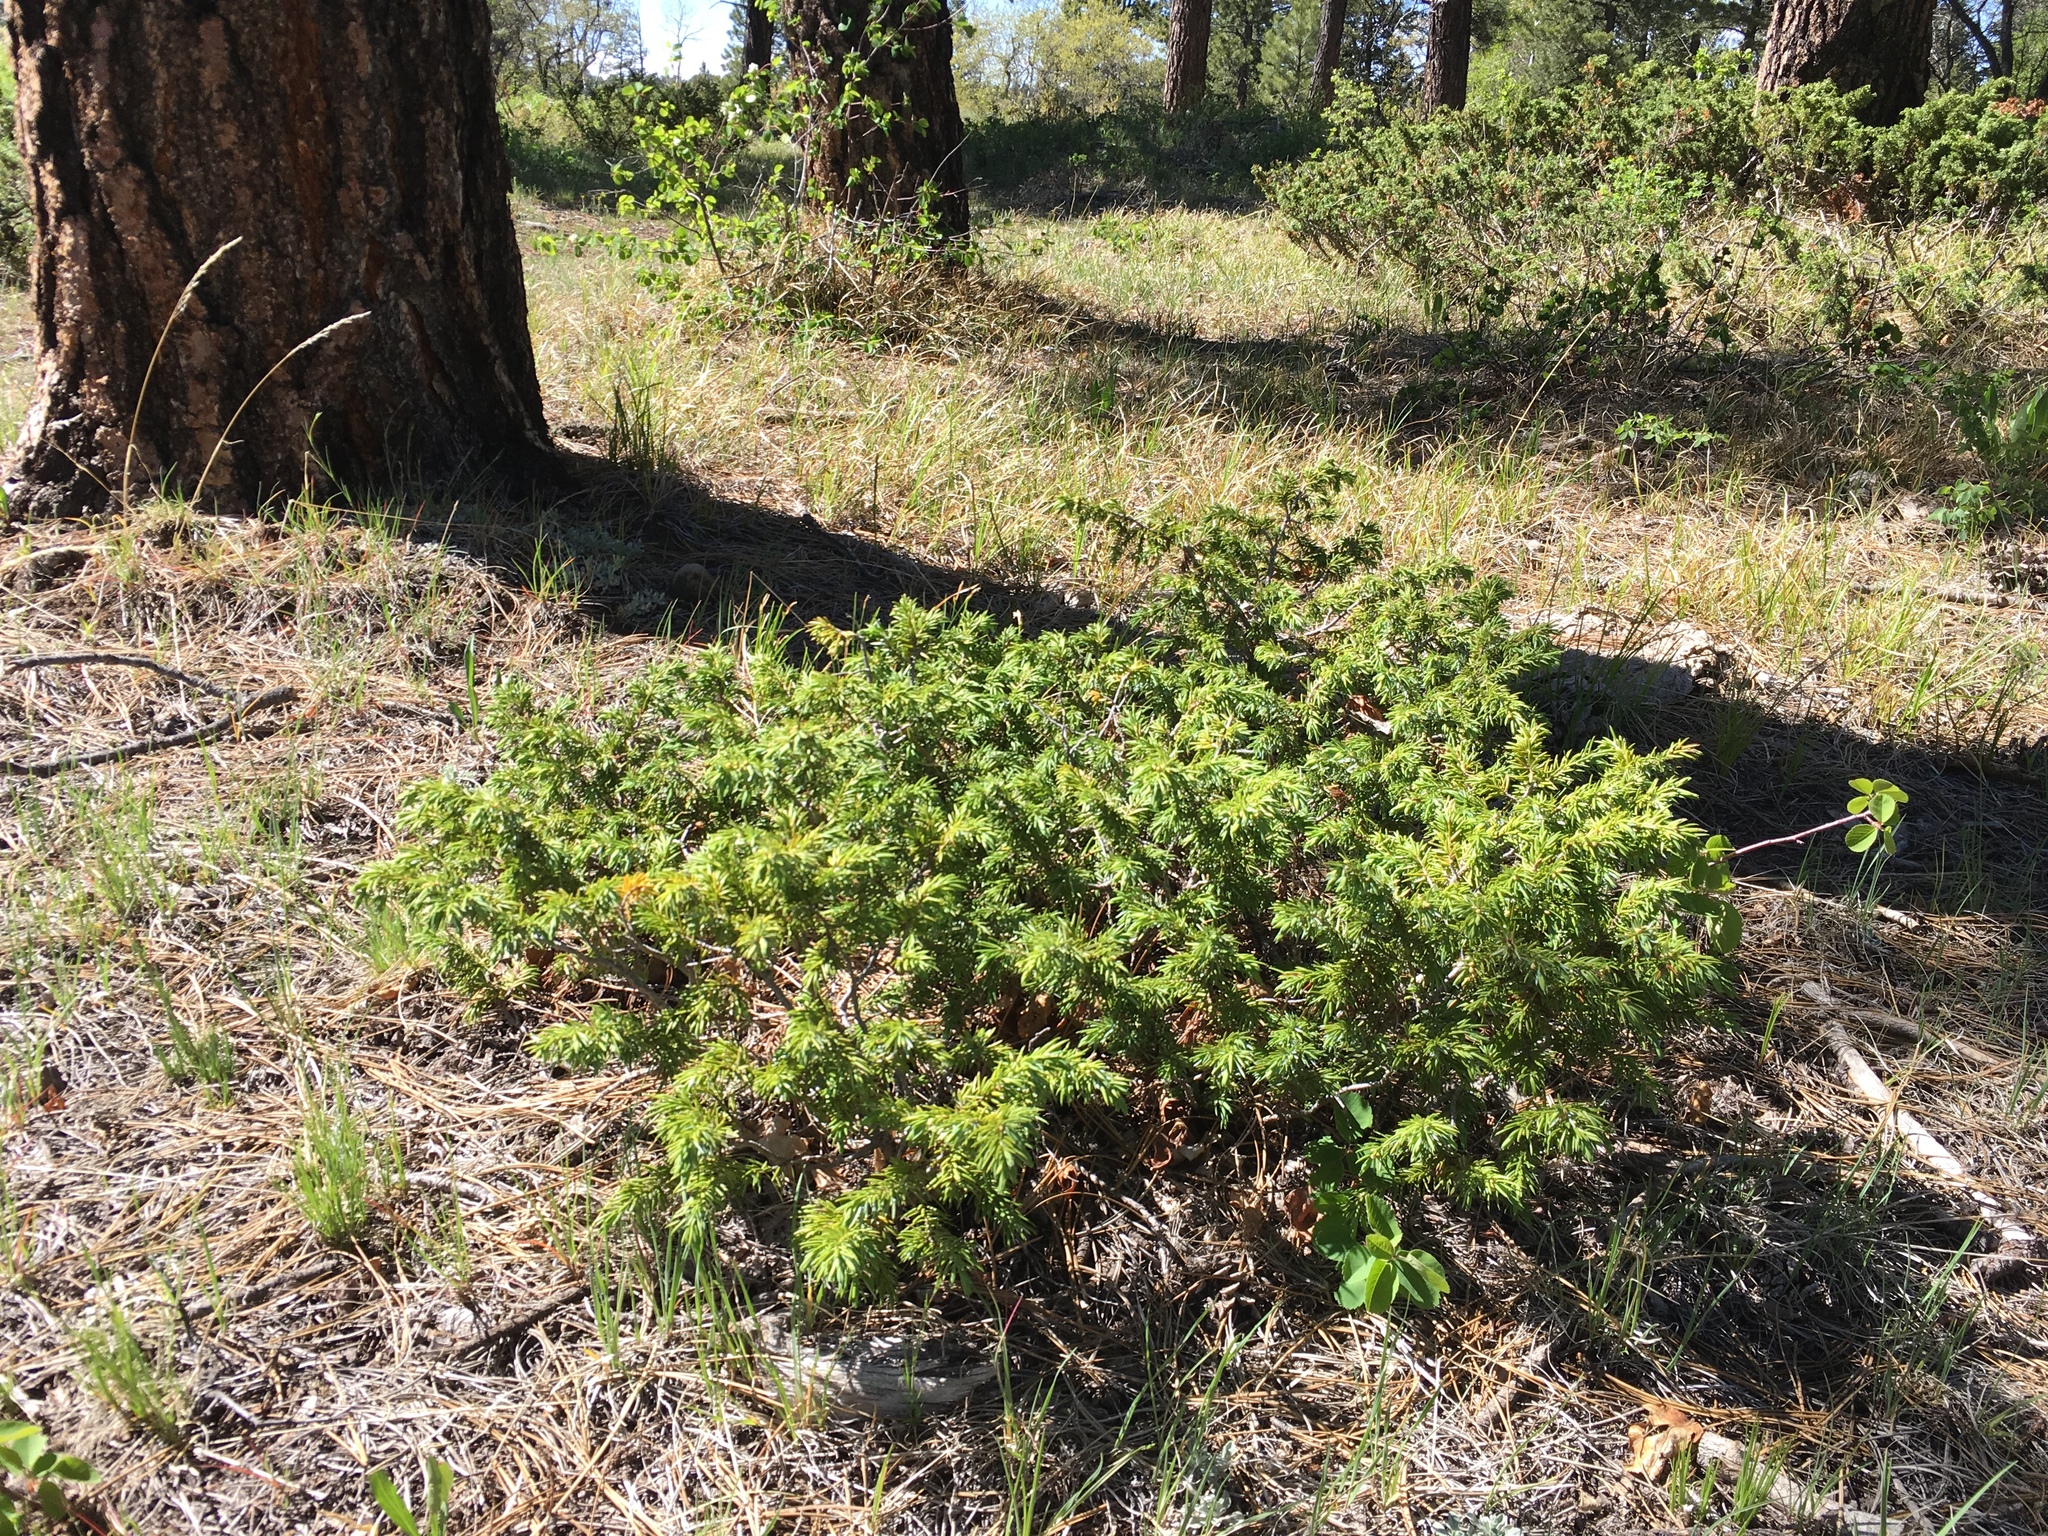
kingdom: Plantae
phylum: Tracheophyta
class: Pinopsida
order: Pinales
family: Cupressaceae
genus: Juniperus
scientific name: Juniperus communis
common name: Common juniper
